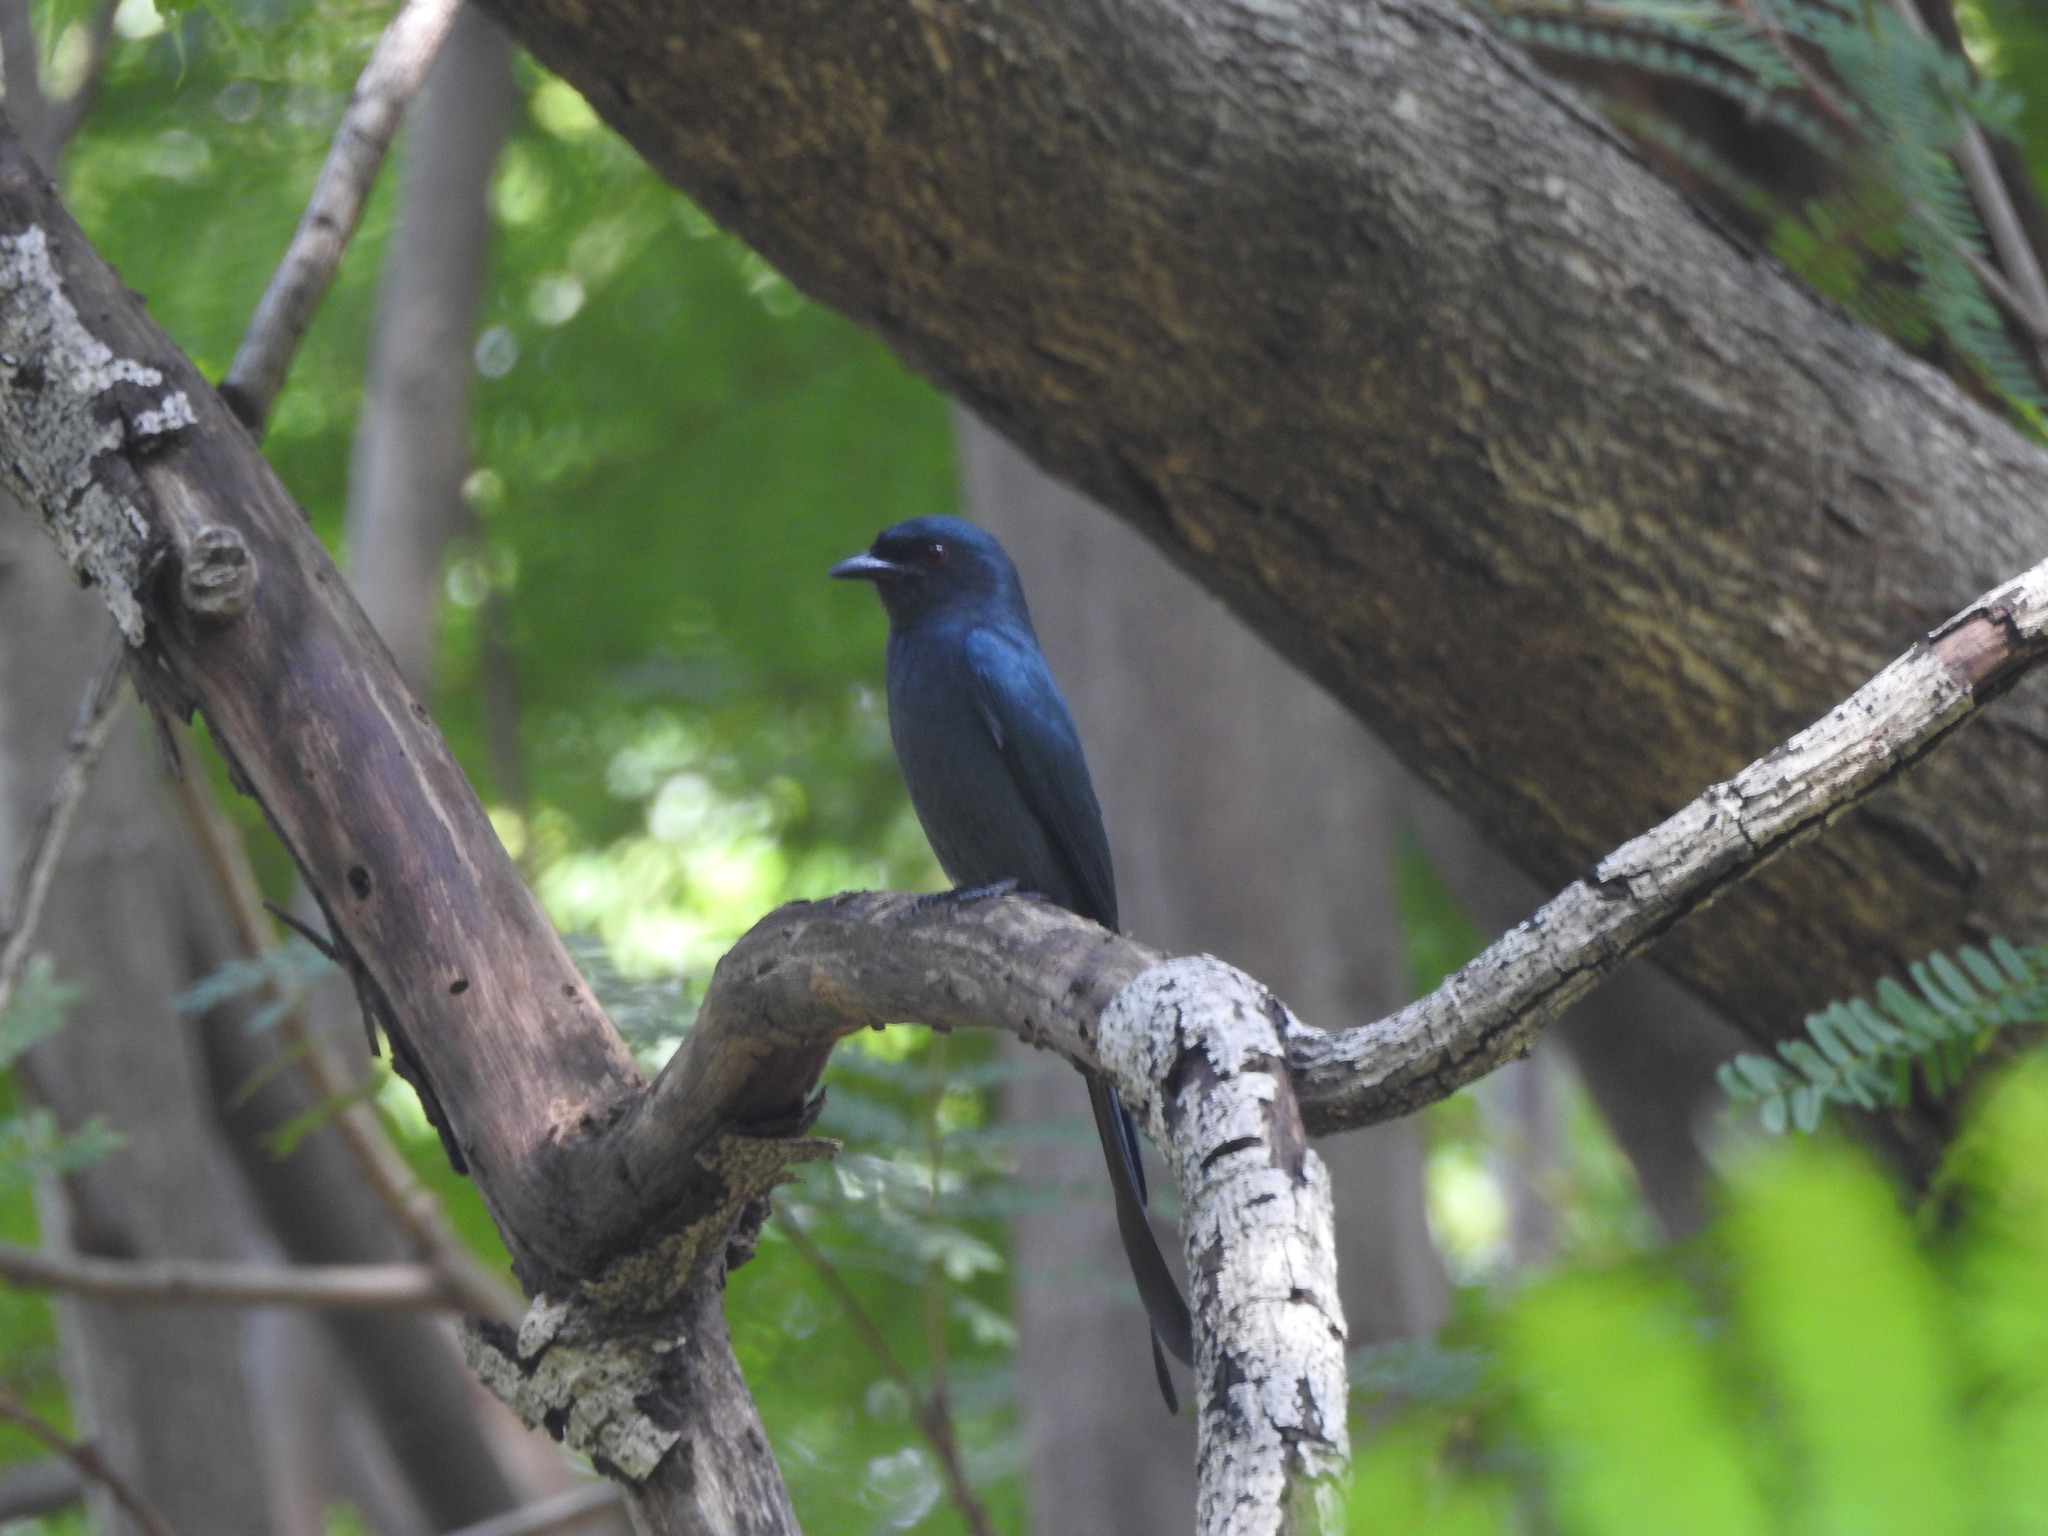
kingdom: Animalia
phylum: Chordata
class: Aves
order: Passeriformes
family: Dicruridae
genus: Dicrurus
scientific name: Dicrurus leucophaeus
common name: Ashy drongo
